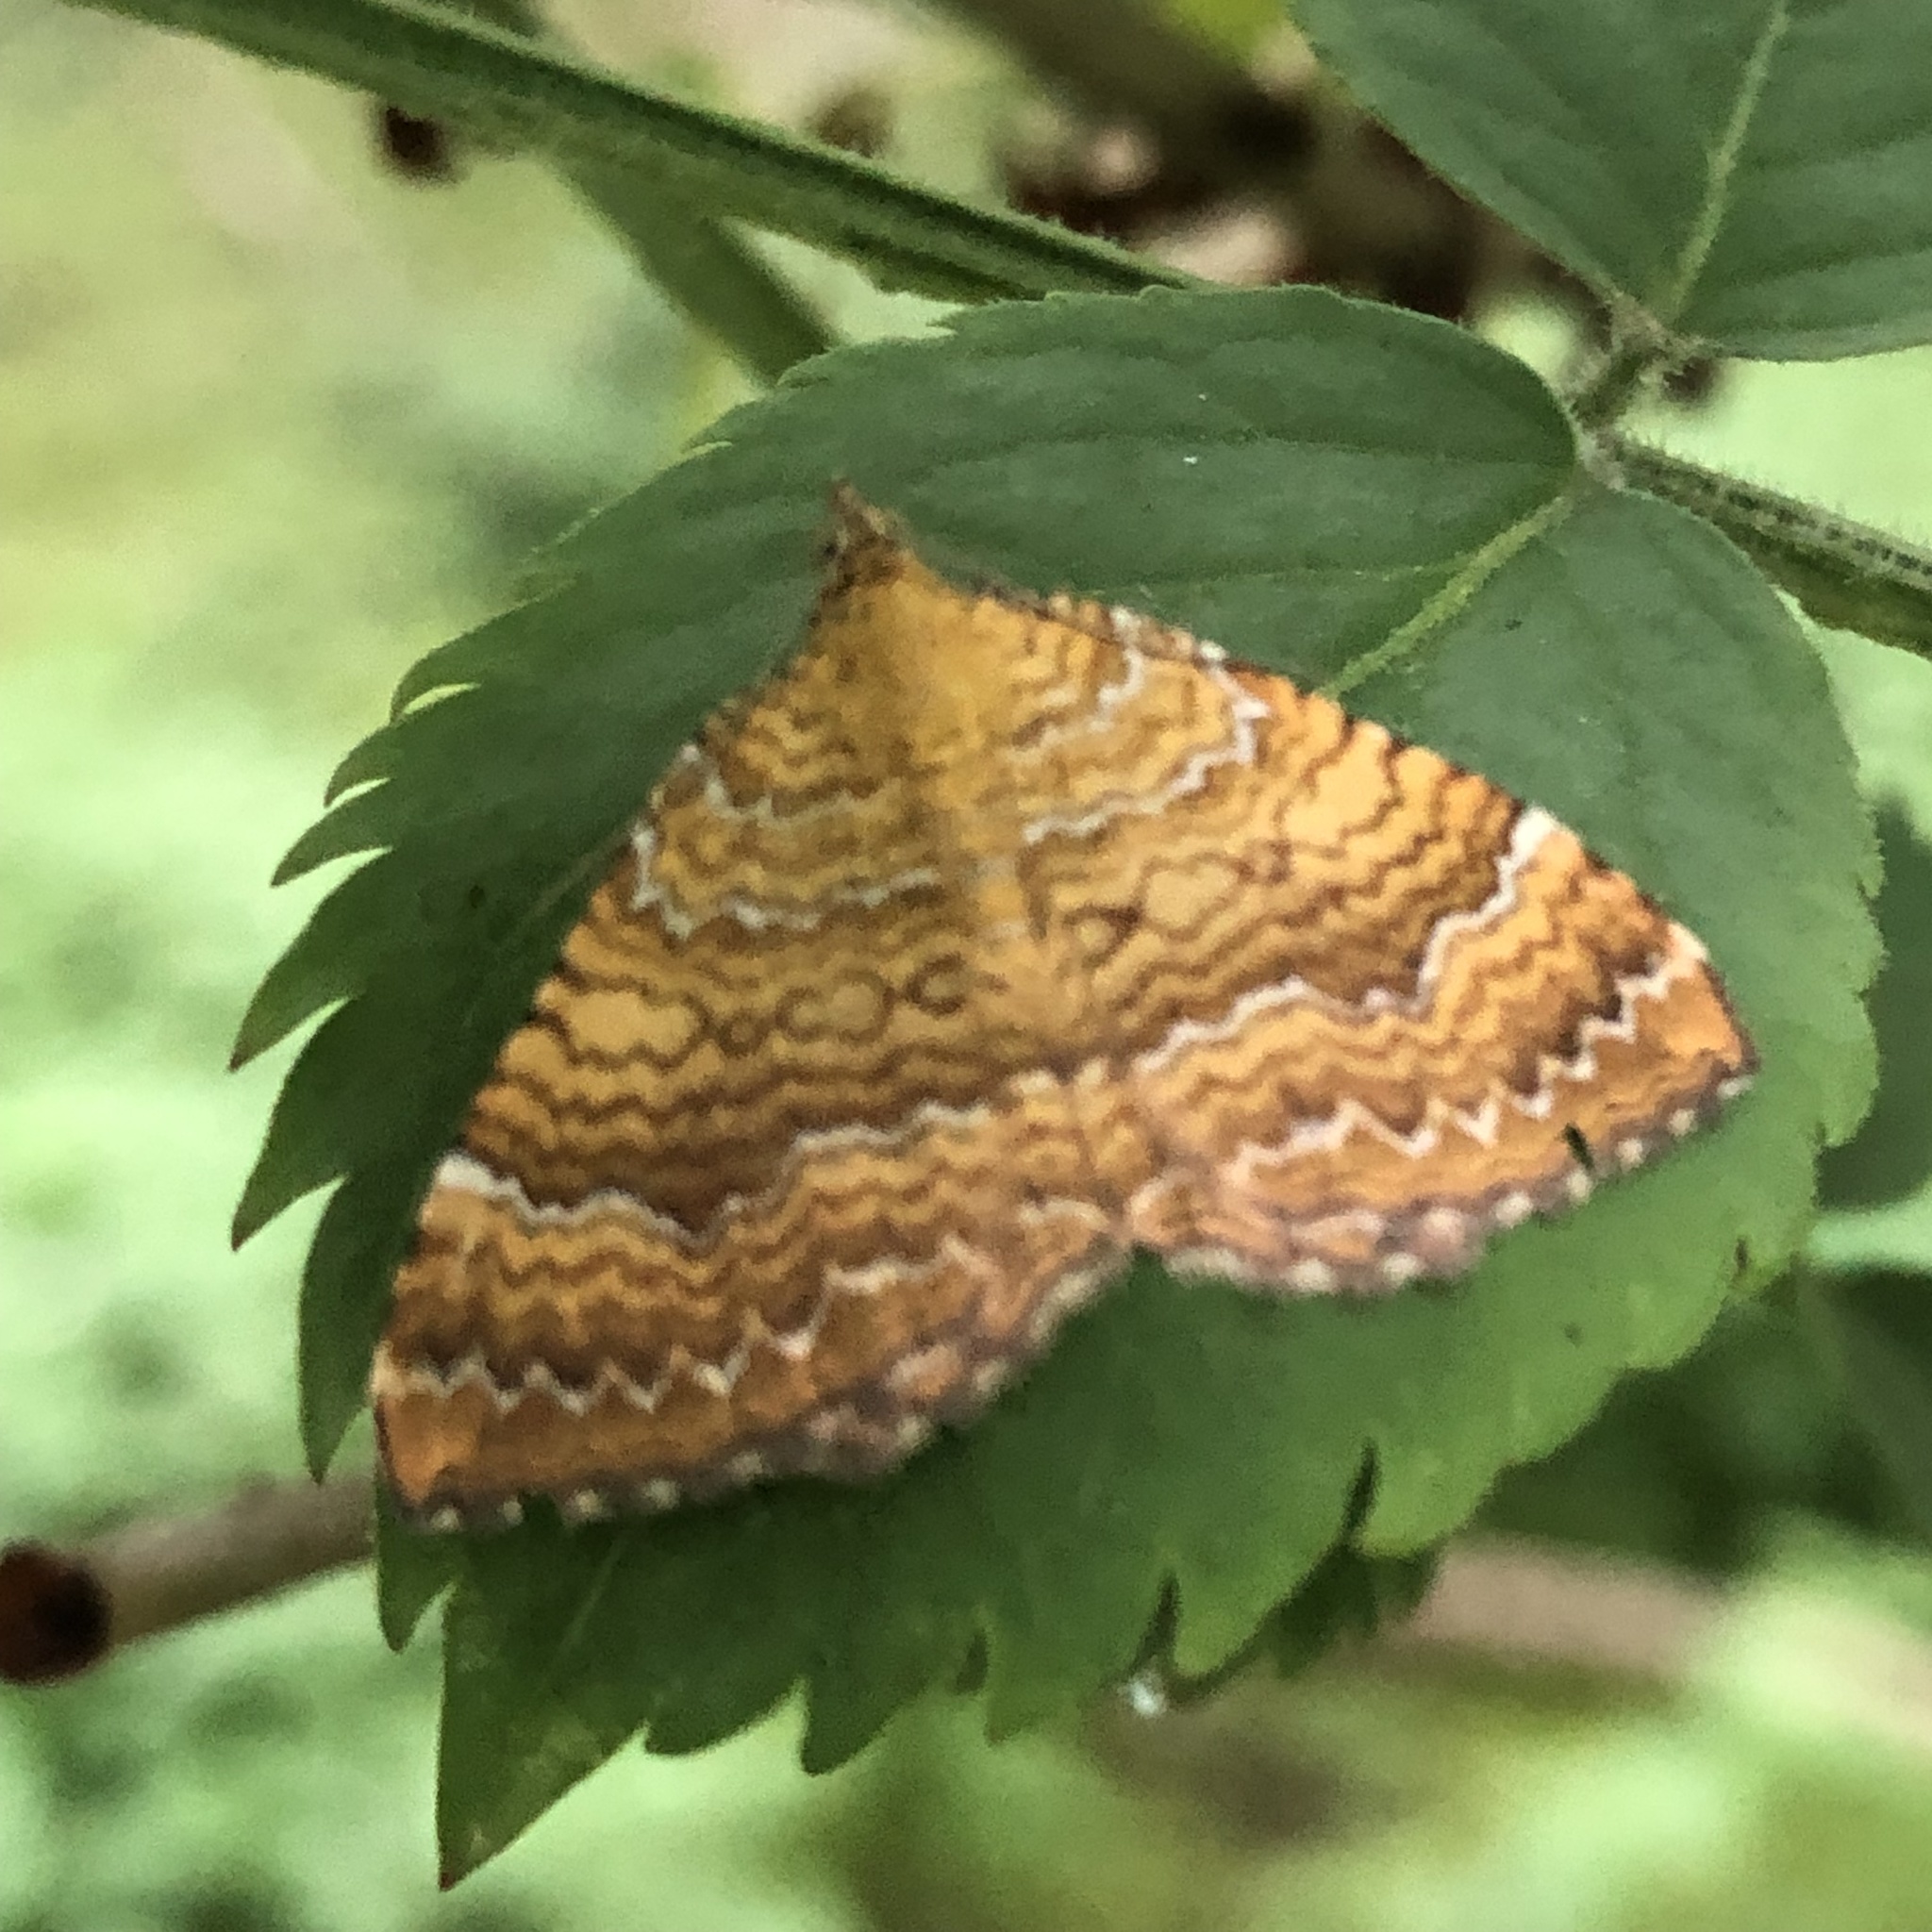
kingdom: Animalia
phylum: Arthropoda
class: Insecta
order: Lepidoptera
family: Geometridae
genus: Camptogramma
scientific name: Camptogramma bilineata
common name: Yellow shell
